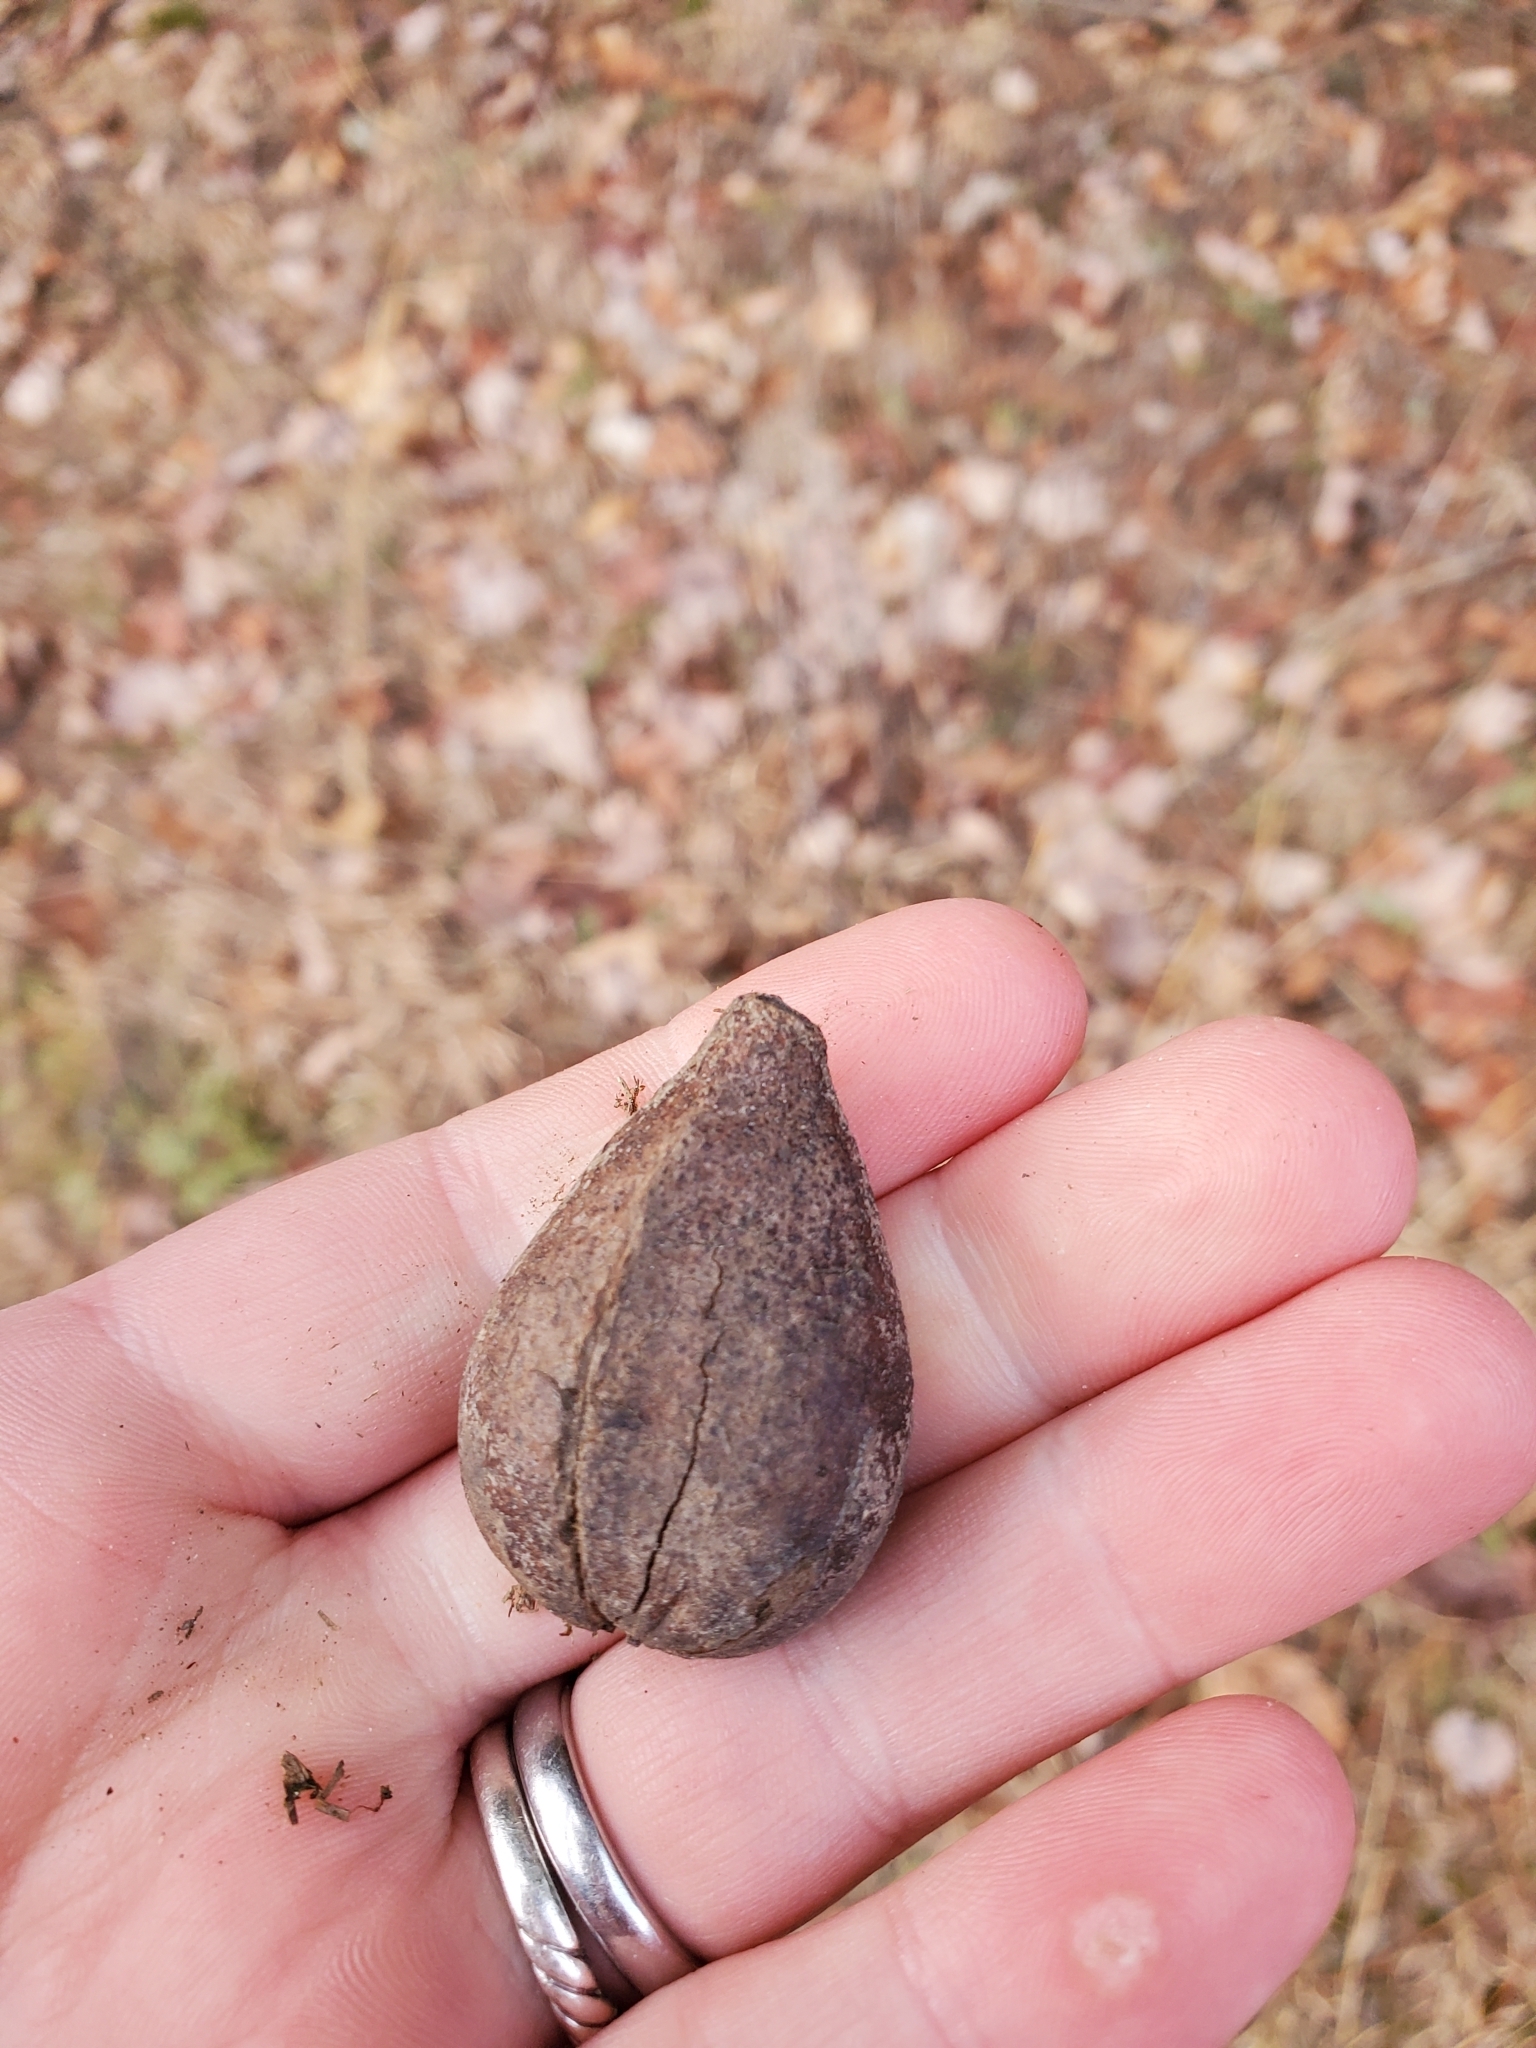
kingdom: Plantae
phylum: Tracheophyta
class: Magnoliopsida
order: Fagales
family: Juglandaceae
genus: Carya
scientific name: Carya glabra
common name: Pignut hickory
